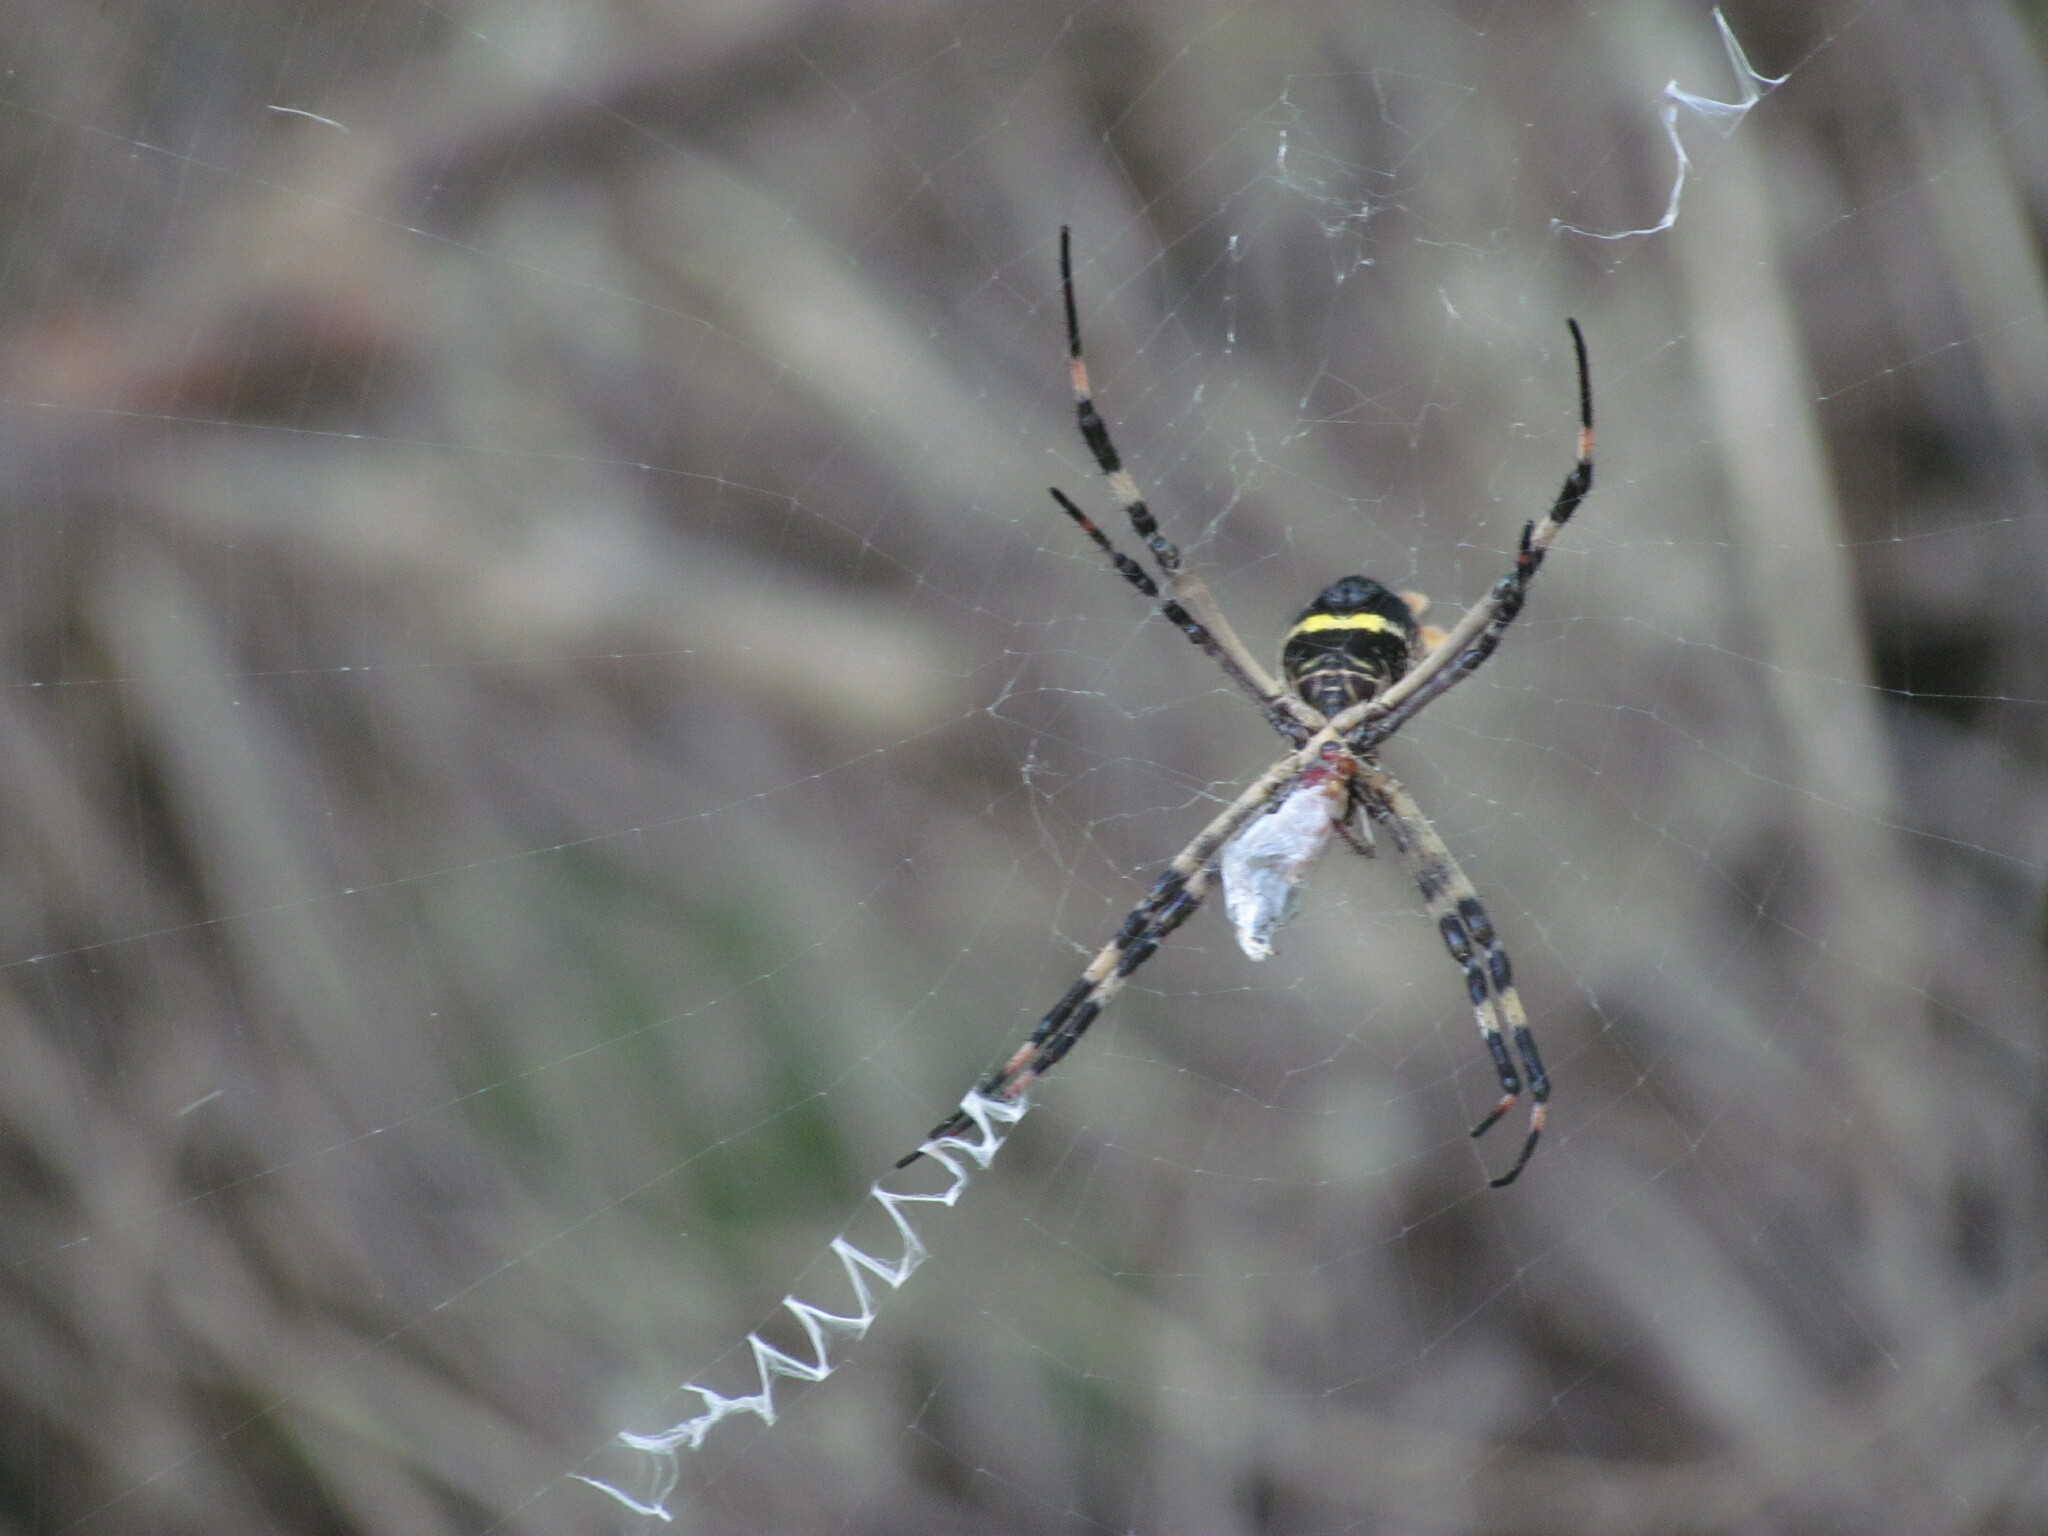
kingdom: Animalia
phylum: Arthropoda
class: Arachnida
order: Araneae
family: Araneidae
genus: Argiope
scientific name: Argiope argentata
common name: Orb weavers
